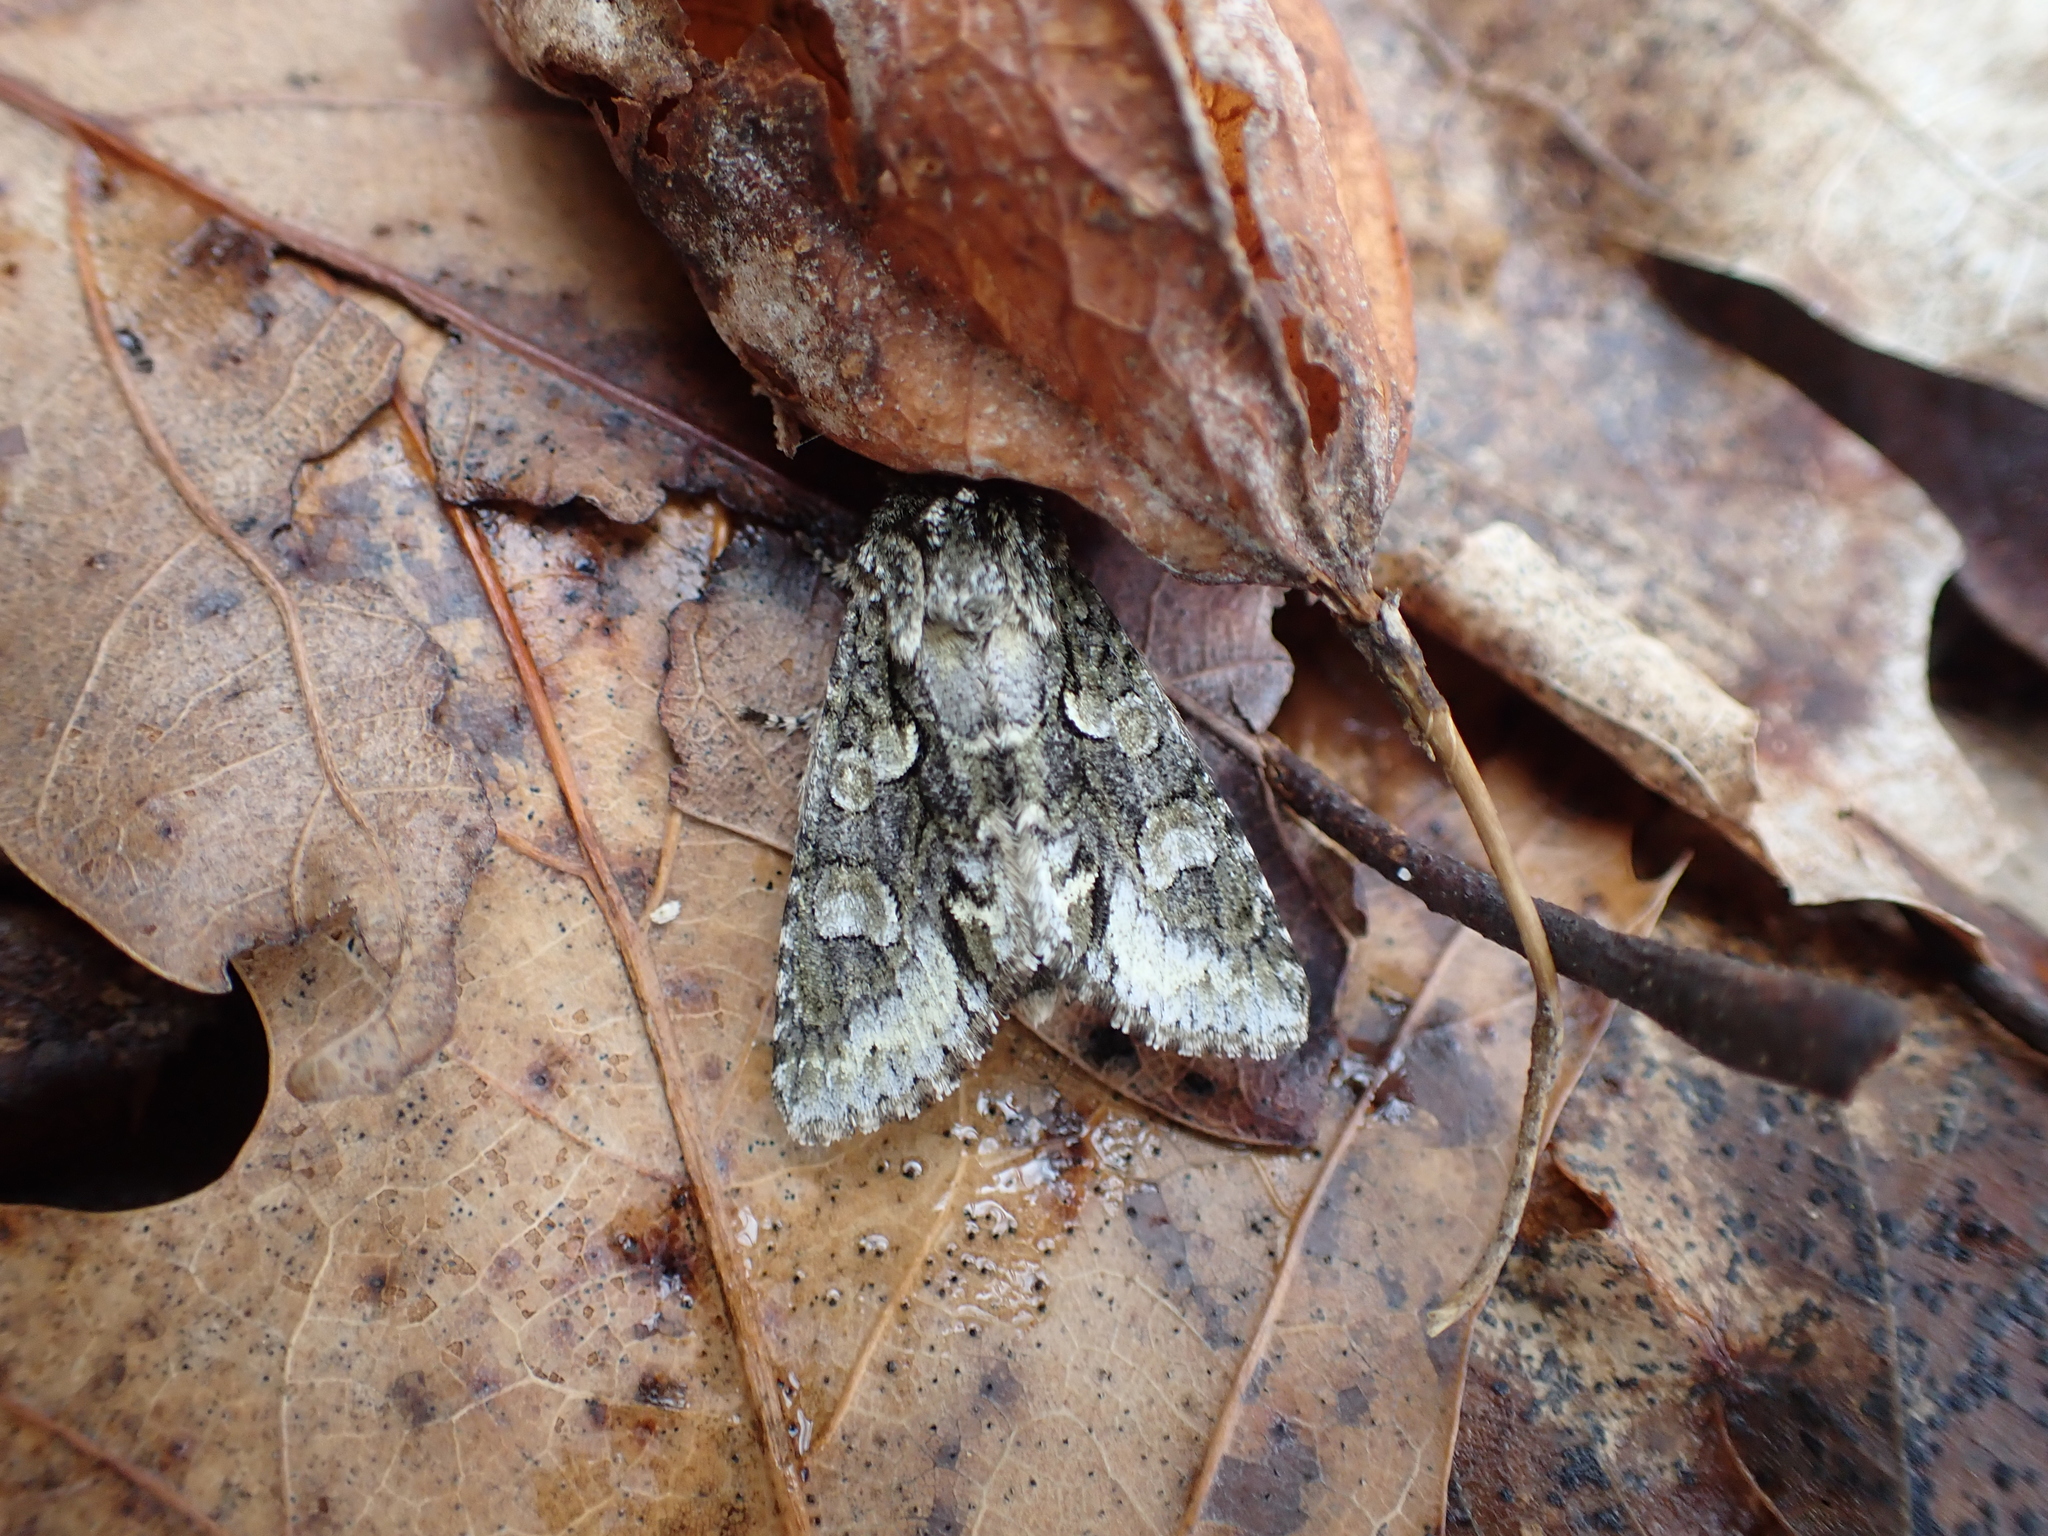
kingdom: Animalia
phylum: Arthropoda
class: Insecta
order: Lepidoptera
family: Noctuidae
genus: Psaphida
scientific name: Psaphida resumens
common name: Figure-eight sallow
